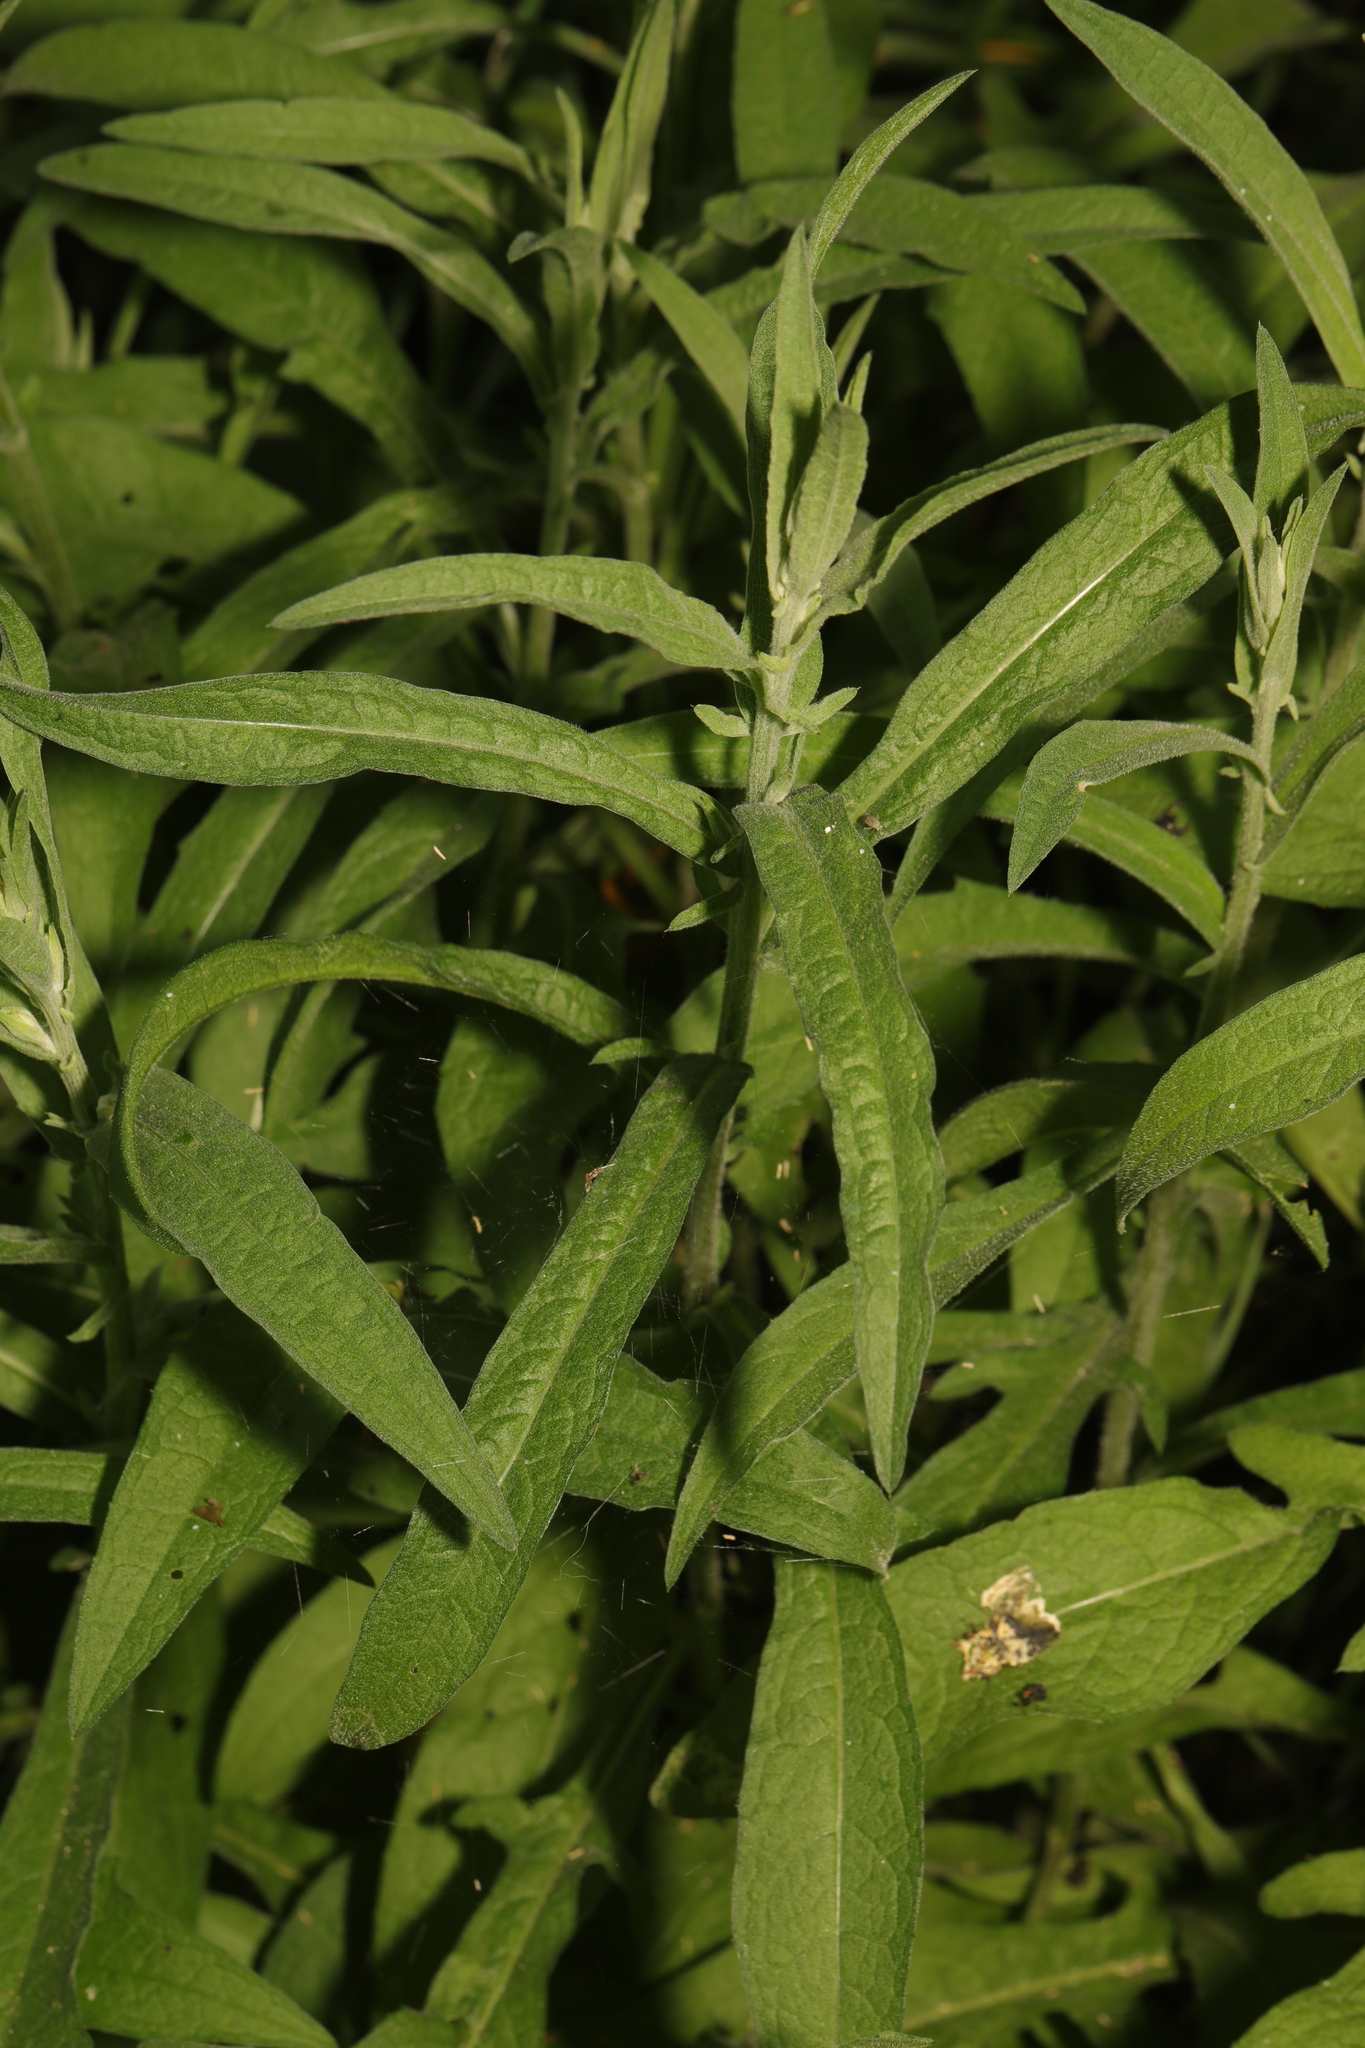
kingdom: Plantae
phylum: Tracheophyta
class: Magnoliopsida
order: Asterales
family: Asteraceae
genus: Centaurea
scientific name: Centaurea nigra
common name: Lesser knapweed
